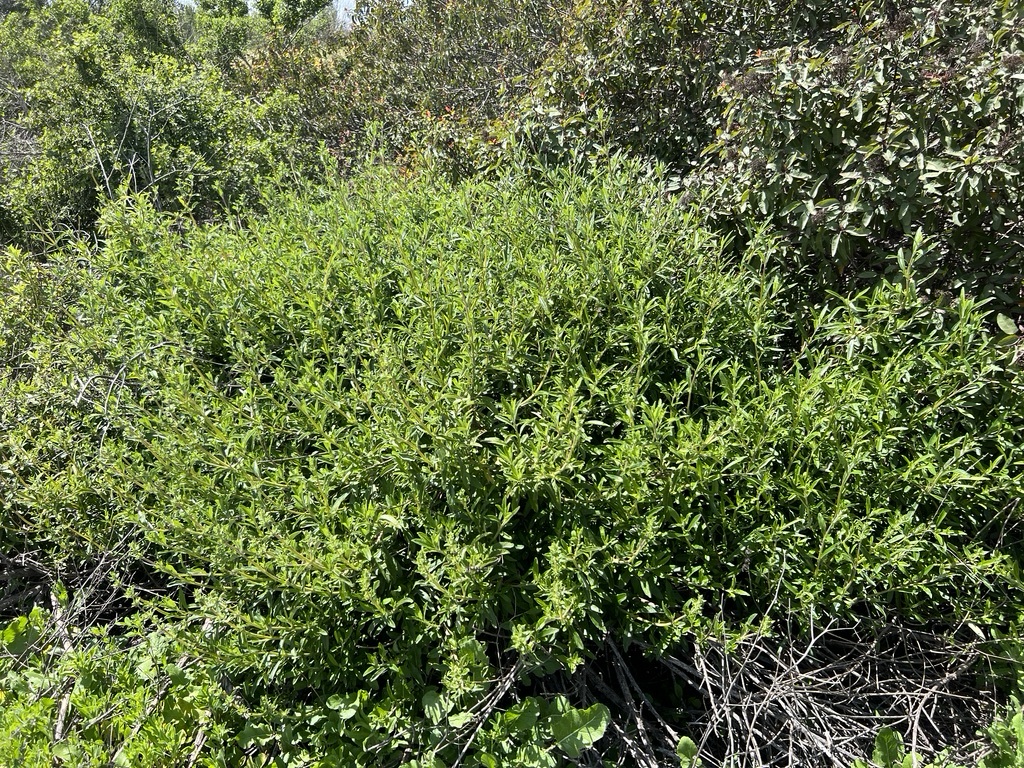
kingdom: Plantae
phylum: Tracheophyta
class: Magnoliopsida
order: Lamiales
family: Lamiaceae
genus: Salvia
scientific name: Salvia mellifera
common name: Black sage
